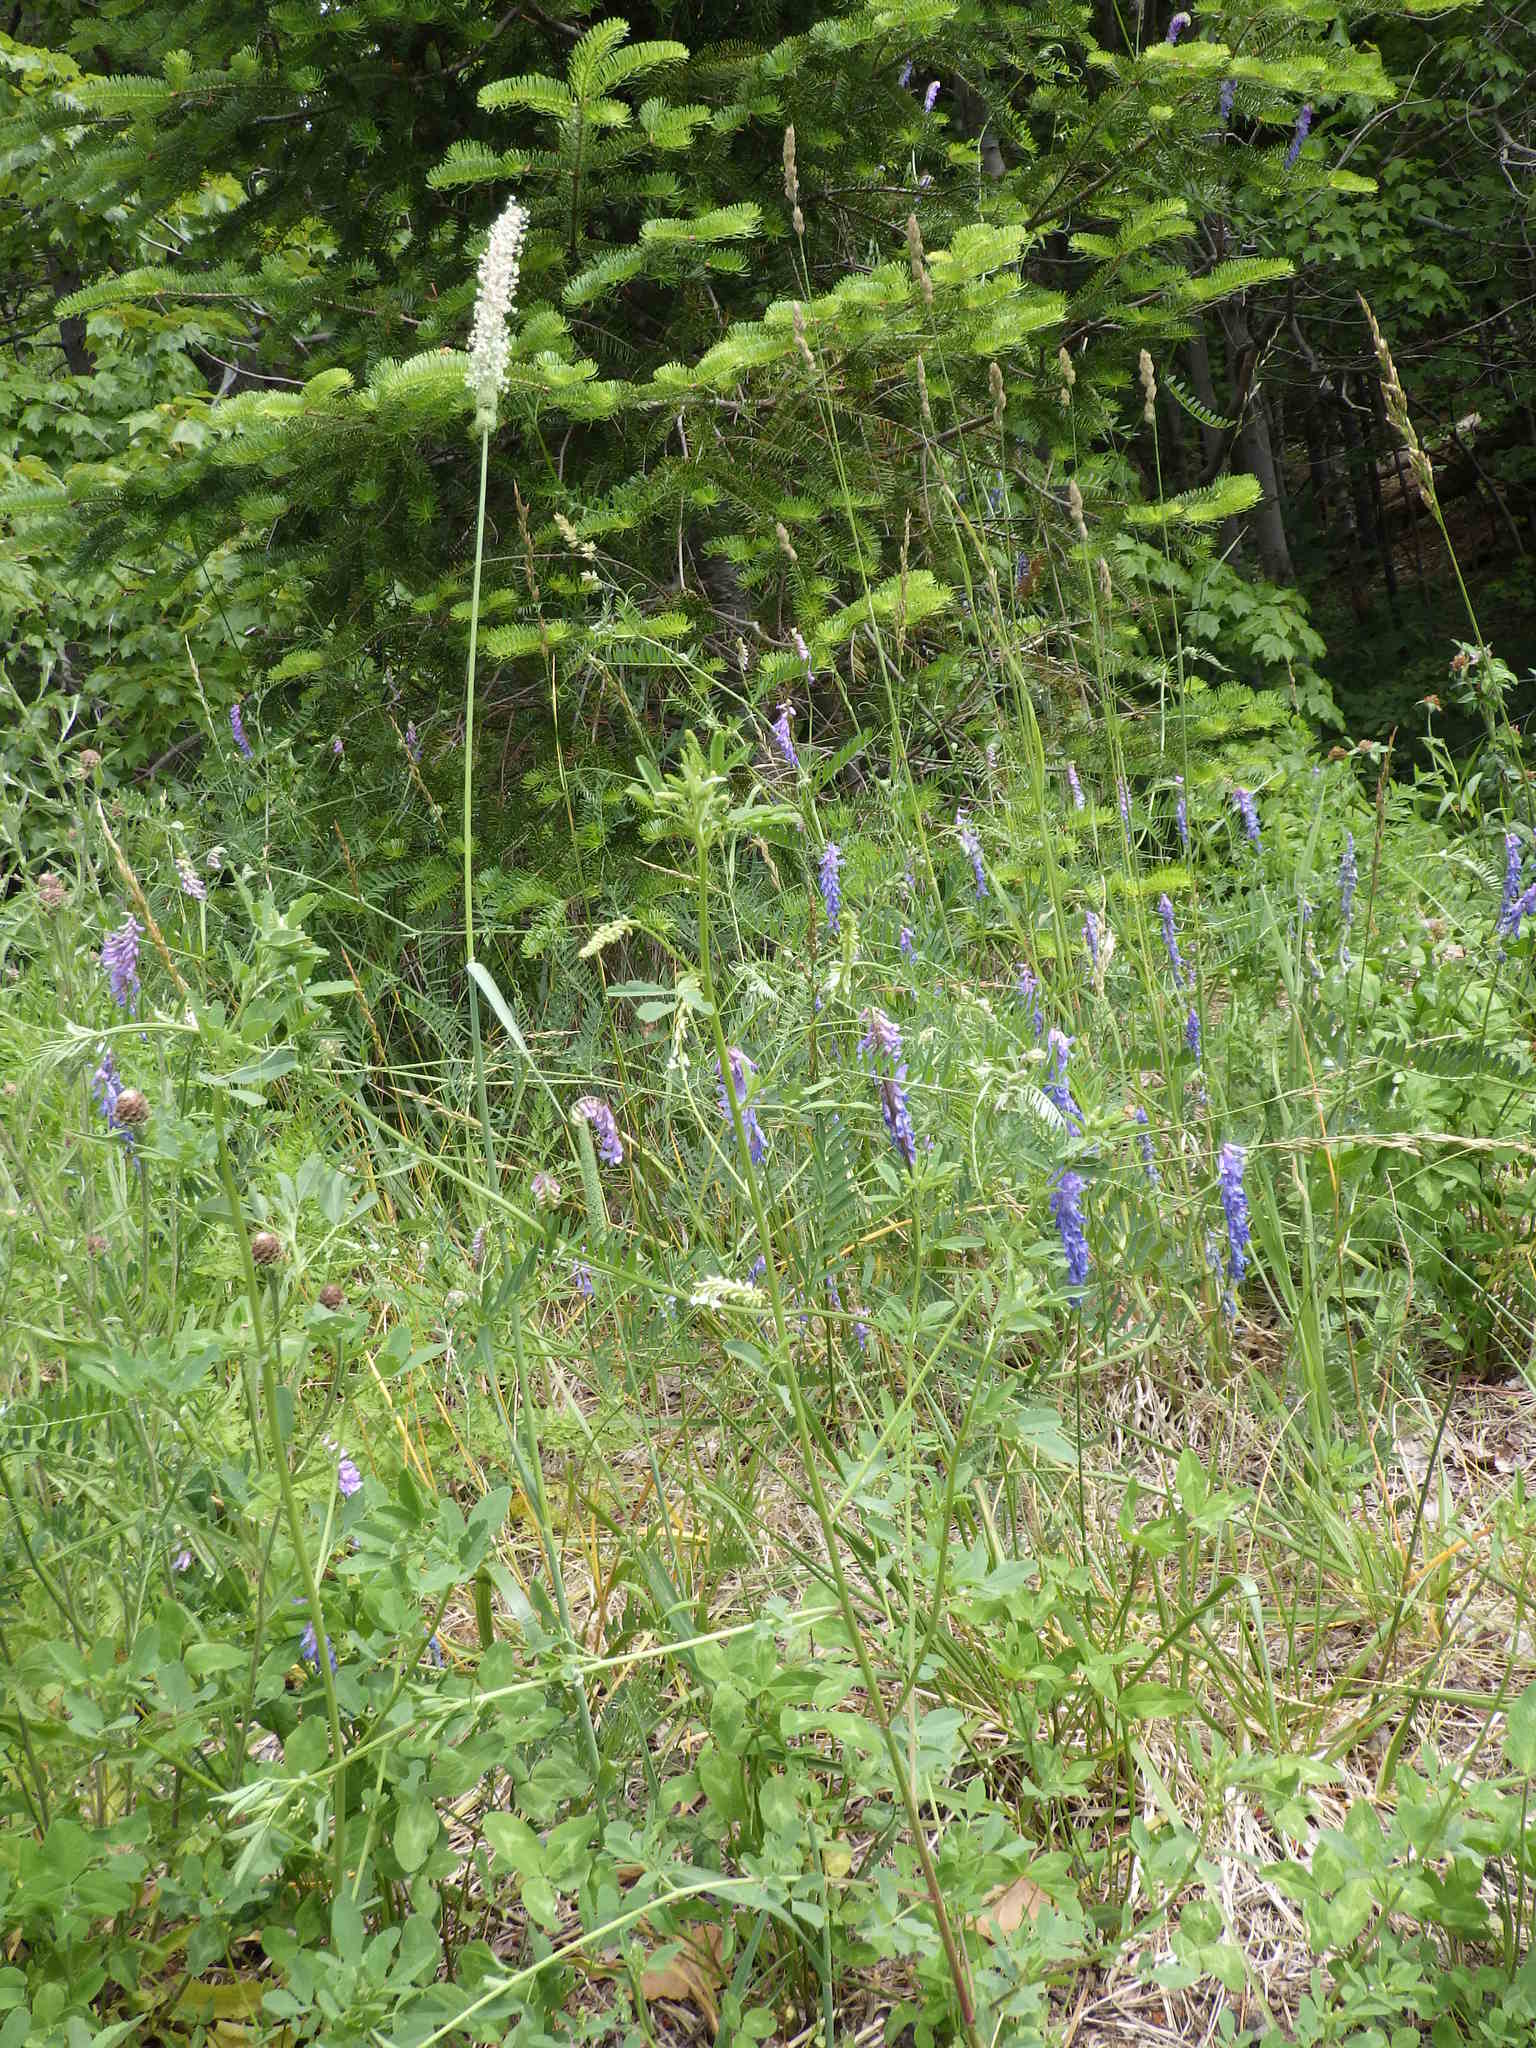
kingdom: Plantae
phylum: Tracheophyta
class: Liliopsida
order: Poales
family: Poaceae
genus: Phleum
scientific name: Phleum pratense
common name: Timothy grass
